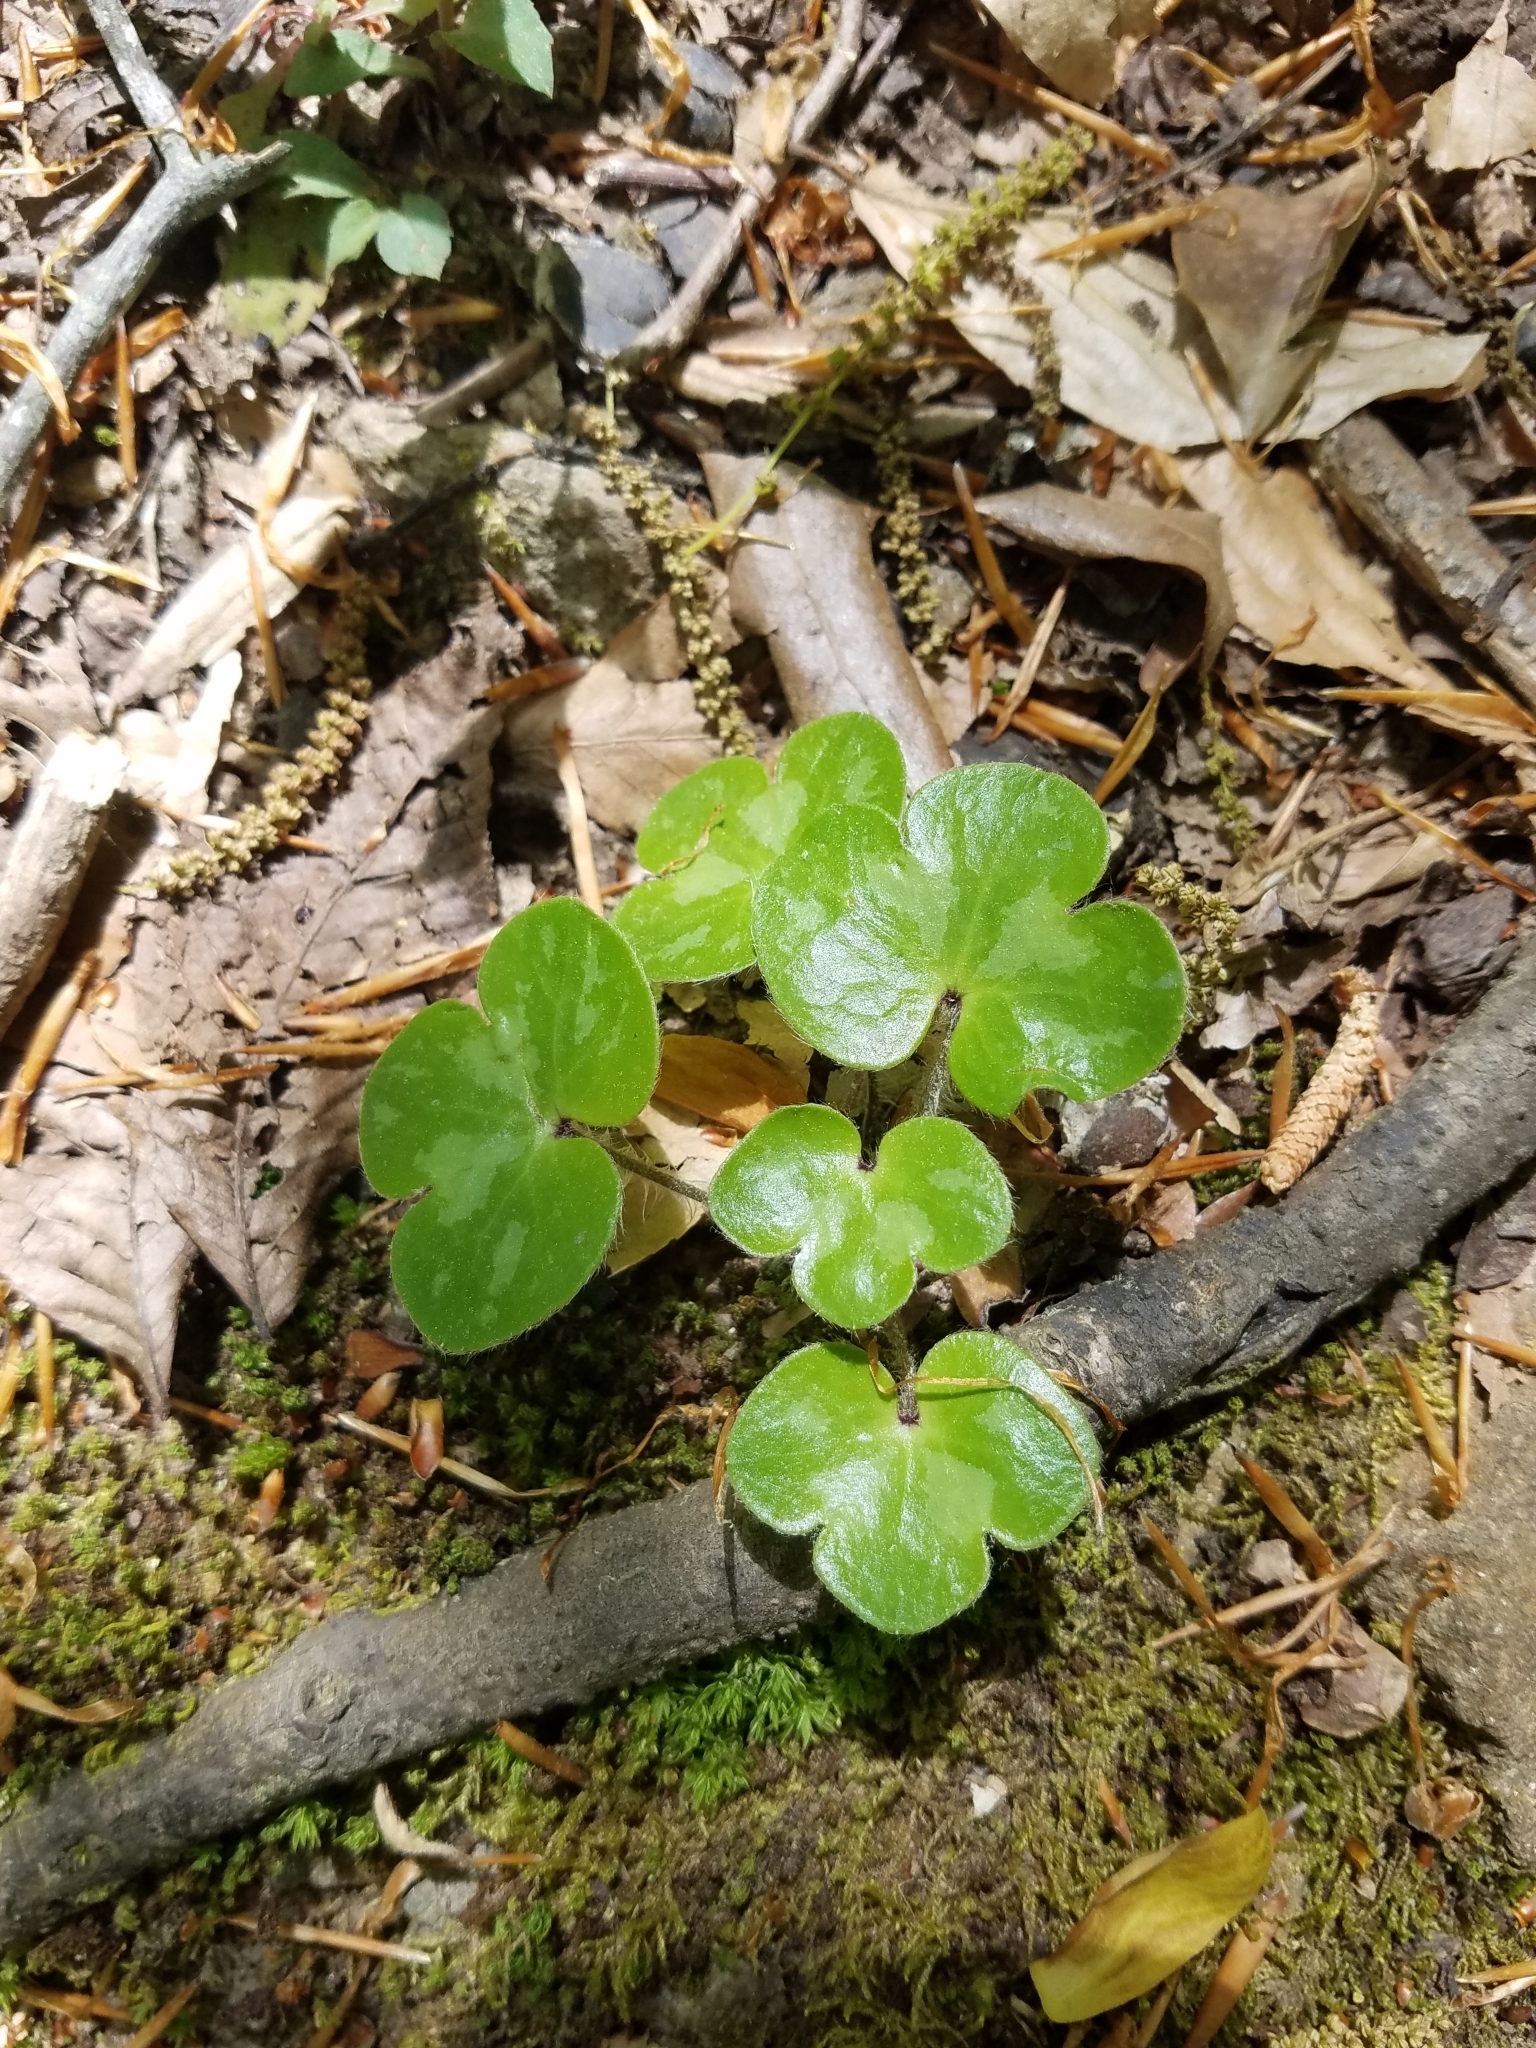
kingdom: Plantae
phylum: Tracheophyta
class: Magnoliopsida
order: Ranunculales
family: Ranunculaceae
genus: Hepatica
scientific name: Hepatica americana
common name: American hepatica
